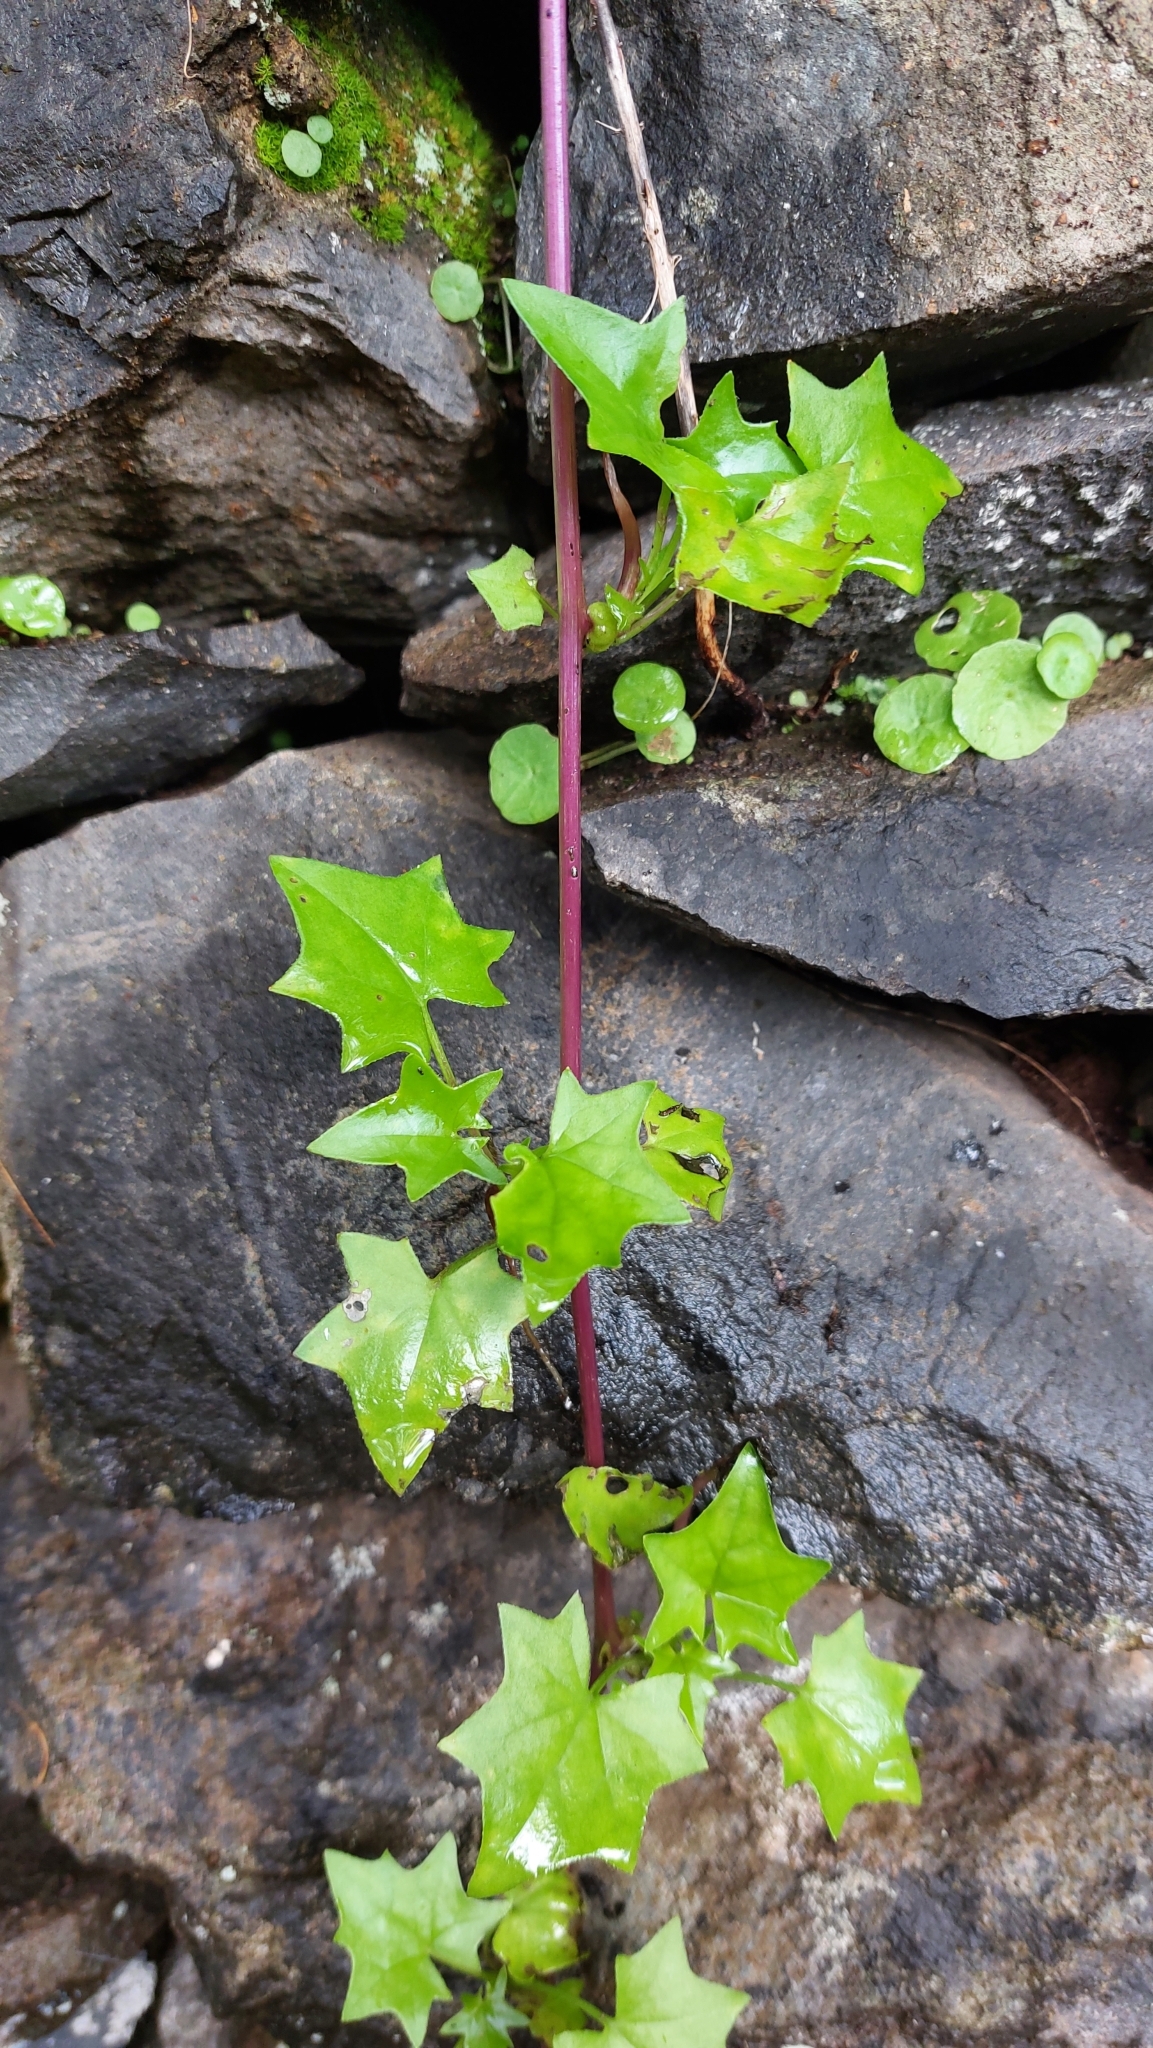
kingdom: Plantae
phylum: Tracheophyta
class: Magnoliopsida
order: Asterales
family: Asteraceae
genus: Delairea
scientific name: Delairea odorata
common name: Cape-ivy
